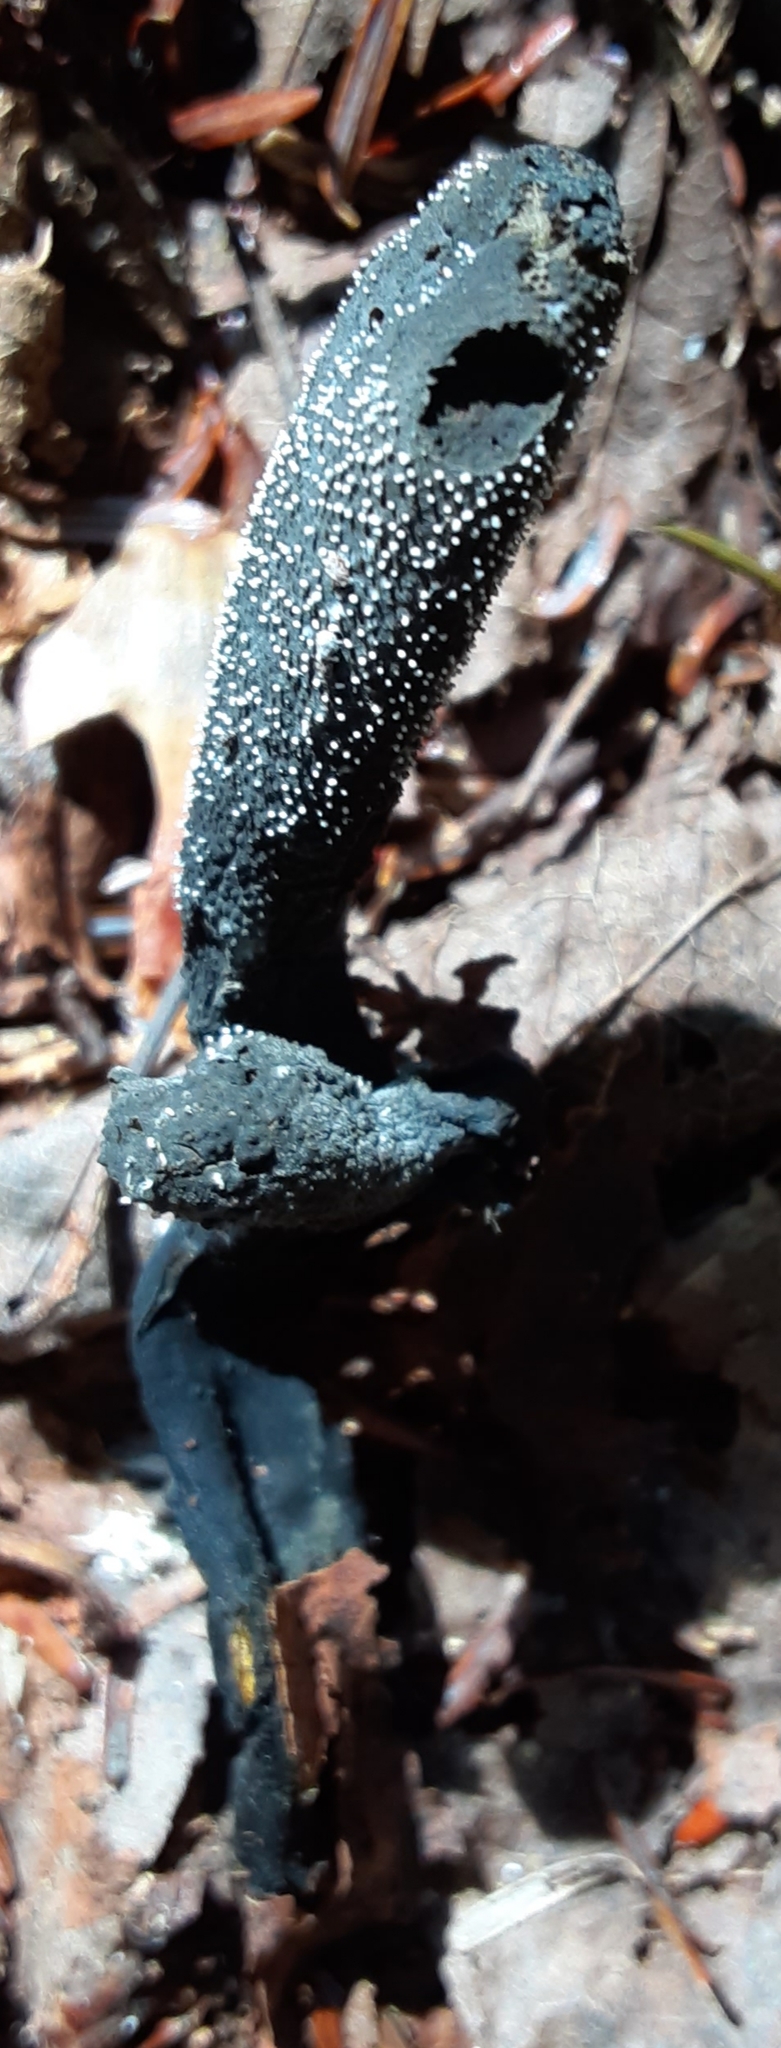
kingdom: Fungi
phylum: Ascomycota
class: Sordariomycetes
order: Hypocreales
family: Ophiocordycipitaceae
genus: Tolypocladium
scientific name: Tolypocladium ophioglossoides
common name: Snaketongue truffleclub
